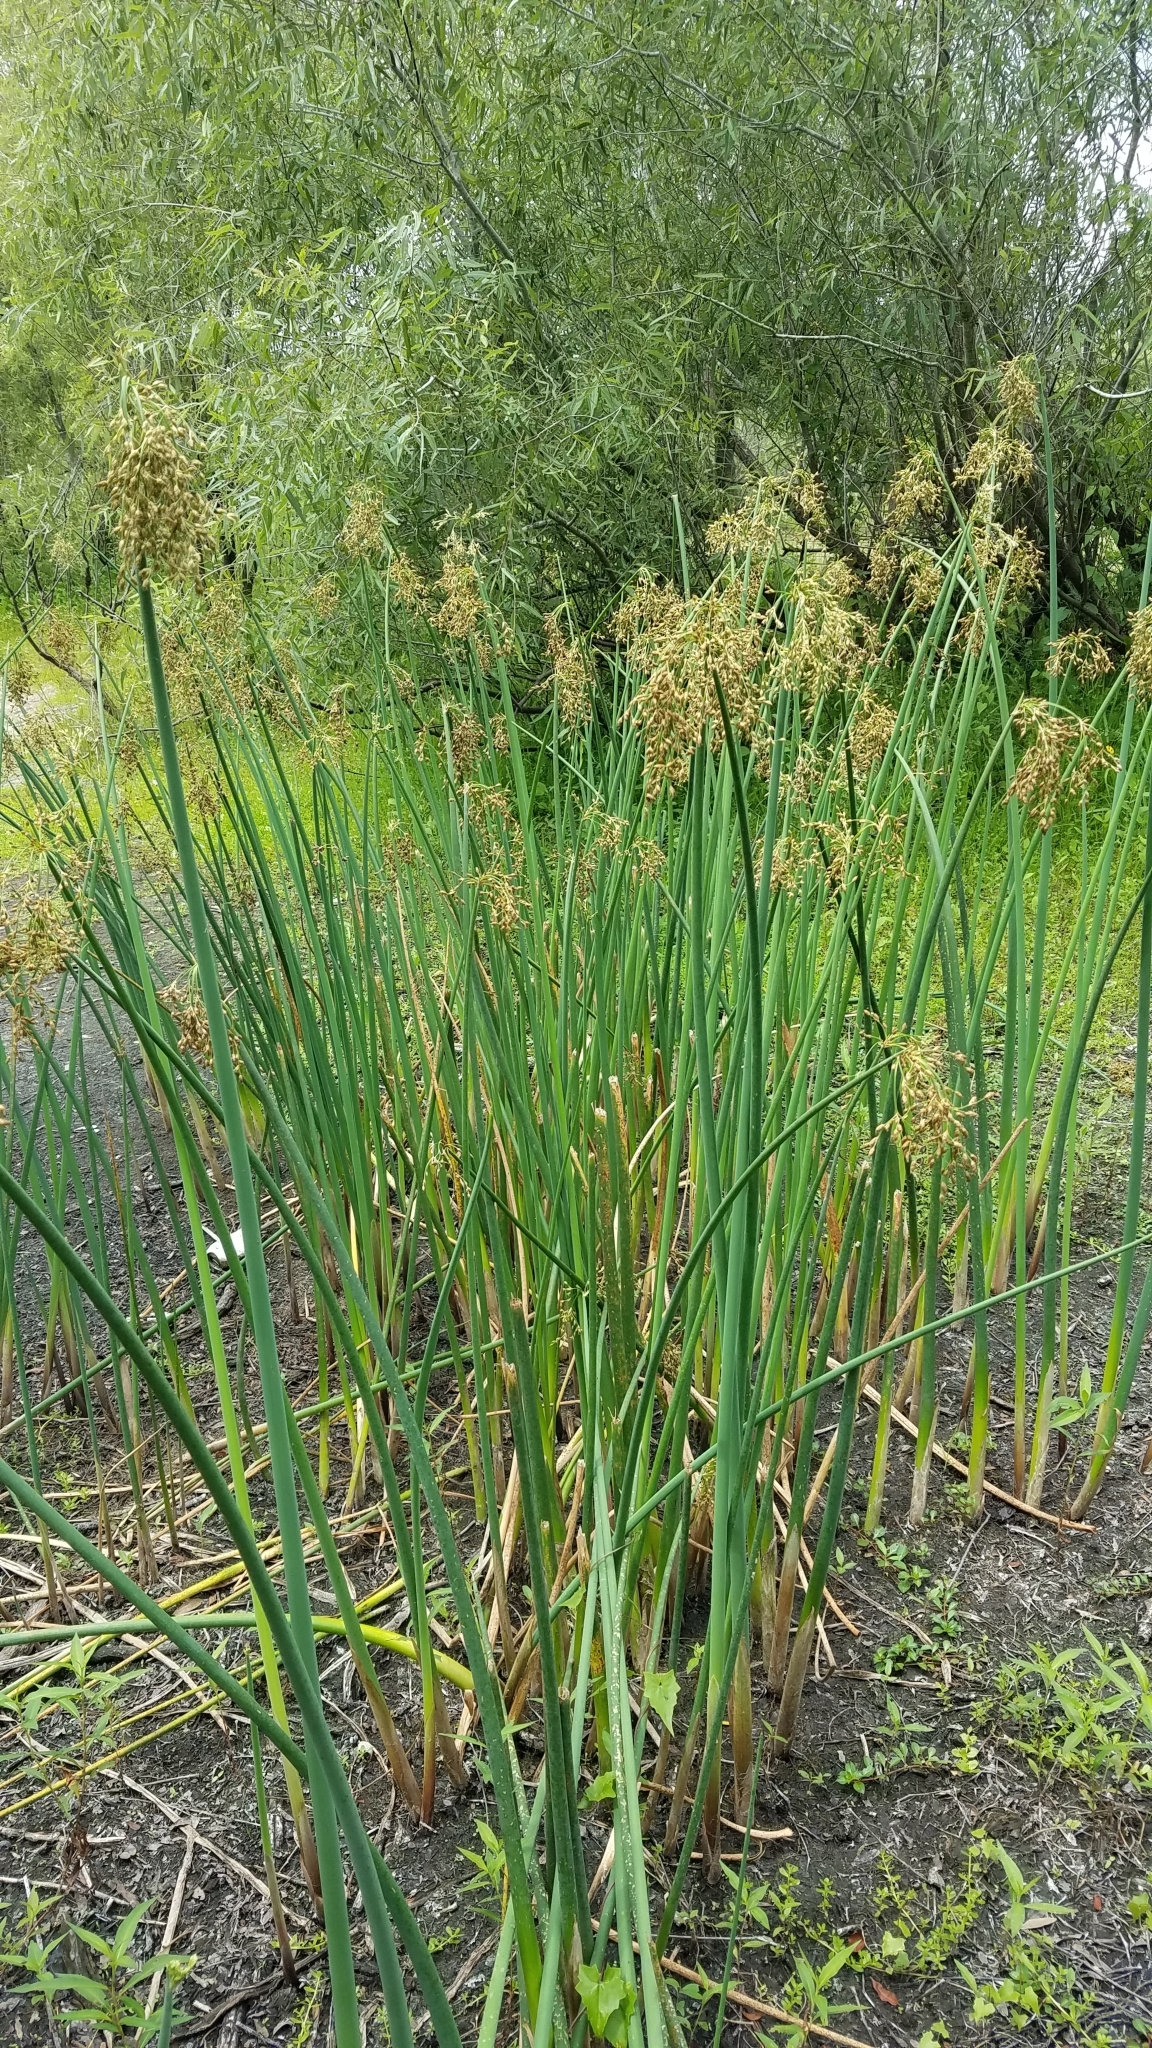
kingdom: Plantae
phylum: Tracheophyta
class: Liliopsida
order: Poales
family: Cyperaceae
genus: Schoenoplectus
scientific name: Schoenoplectus tabernaemontani
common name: Grey club-rush
